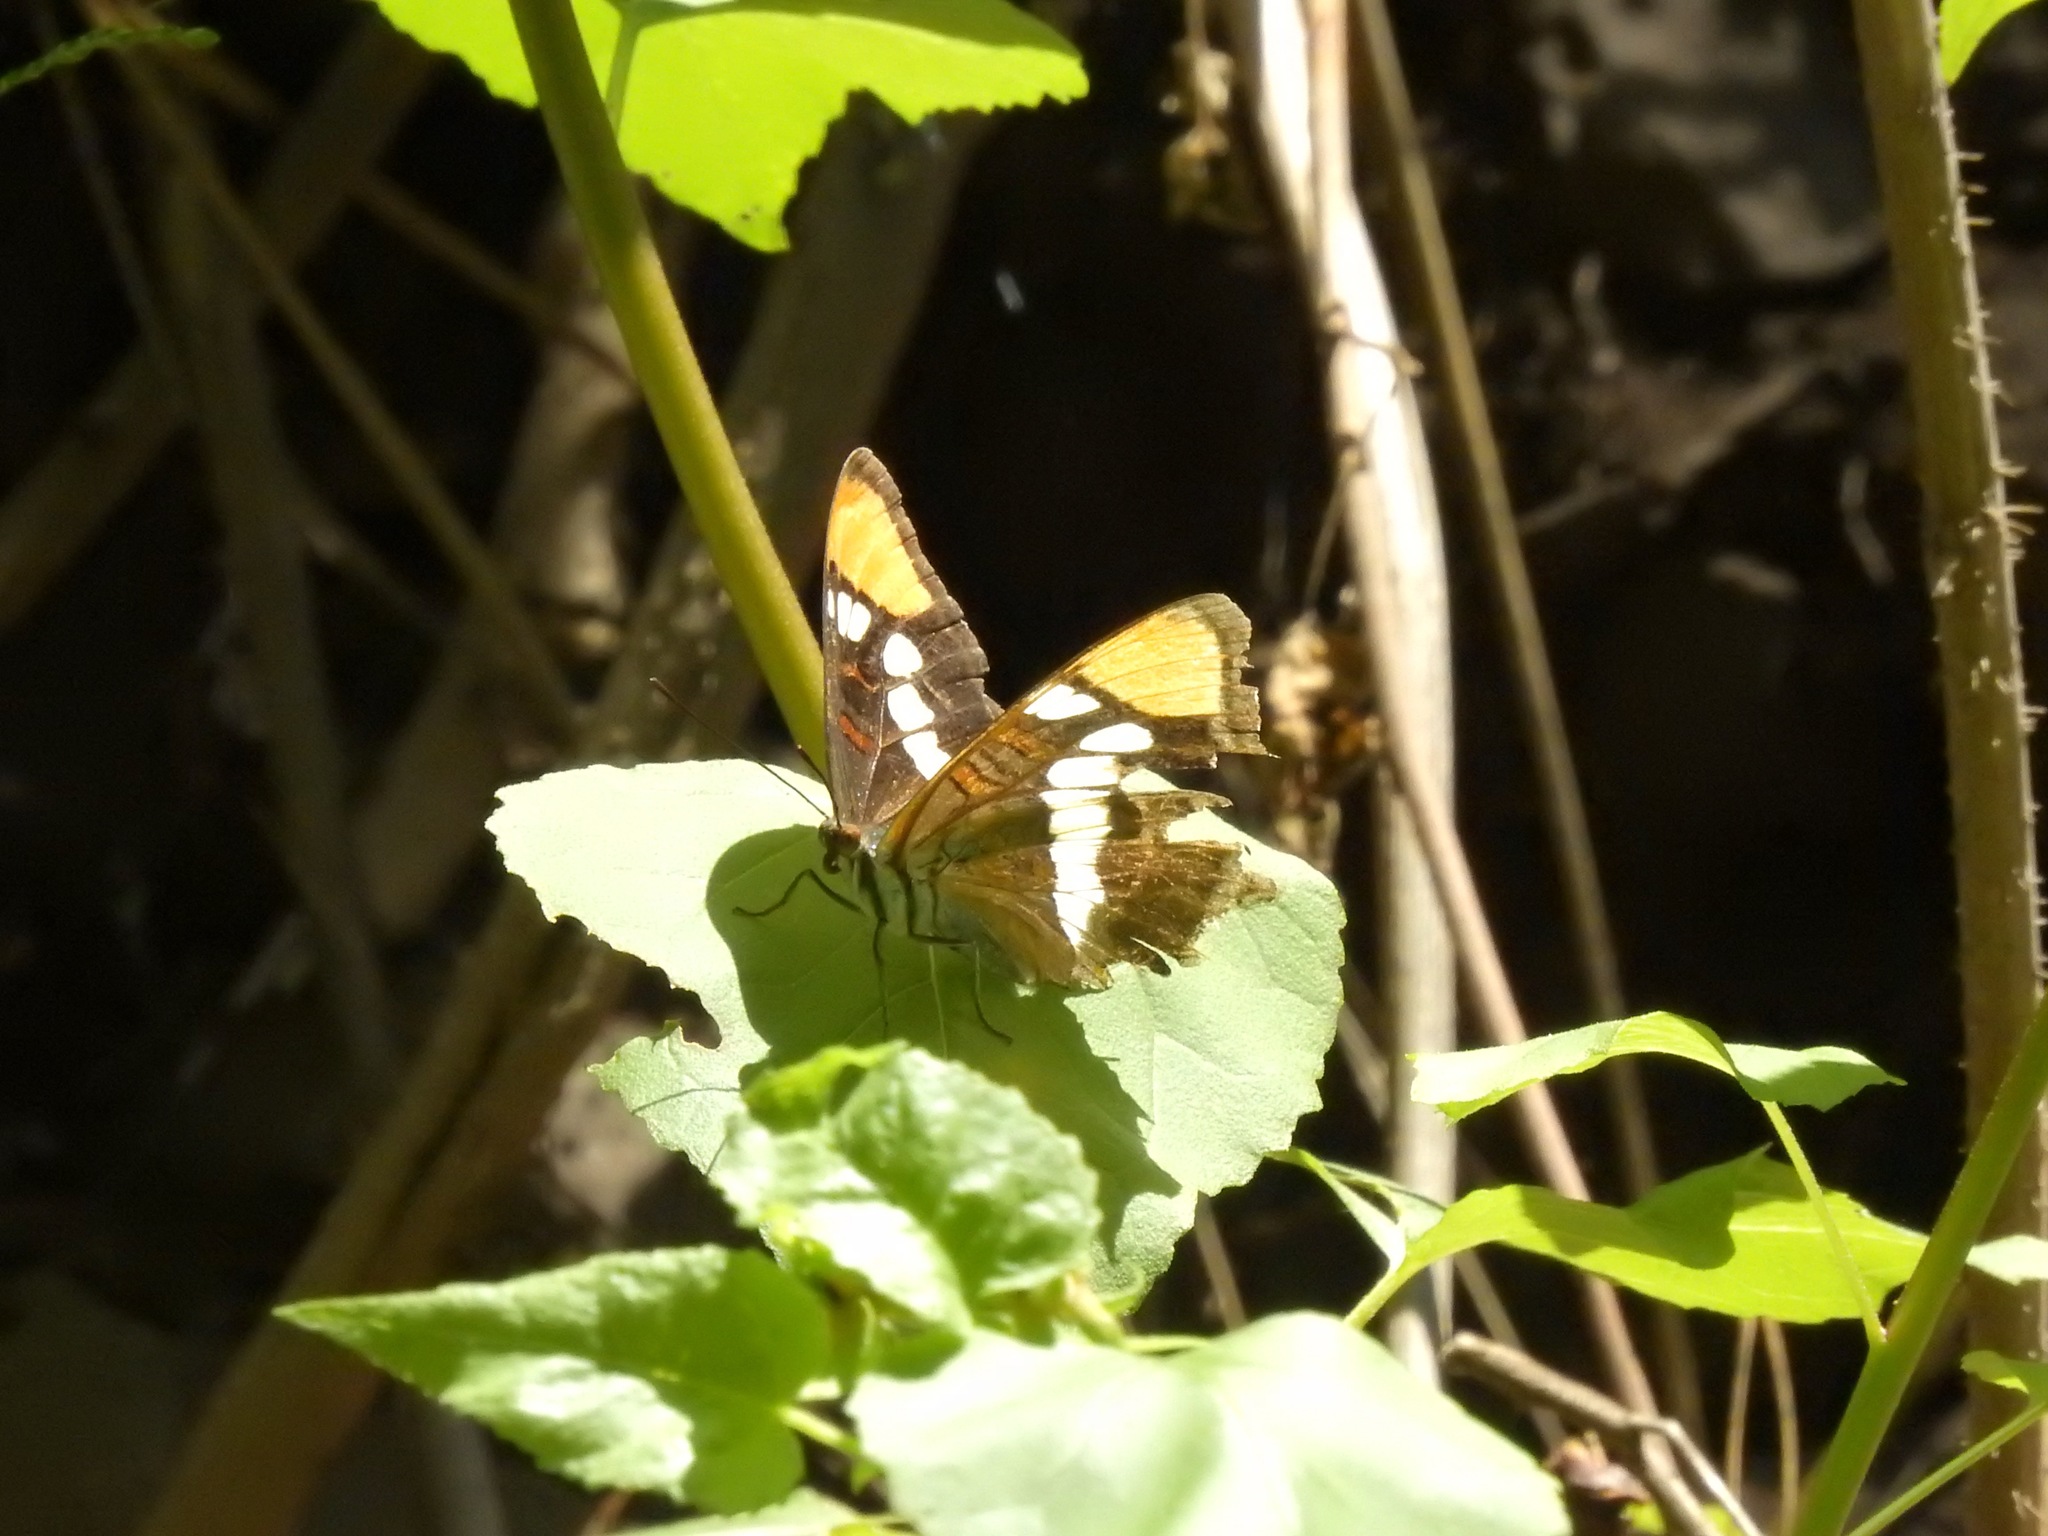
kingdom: Animalia
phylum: Arthropoda
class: Insecta
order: Lepidoptera
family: Nymphalidae
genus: Limenitis
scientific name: Limenitis bredowii
